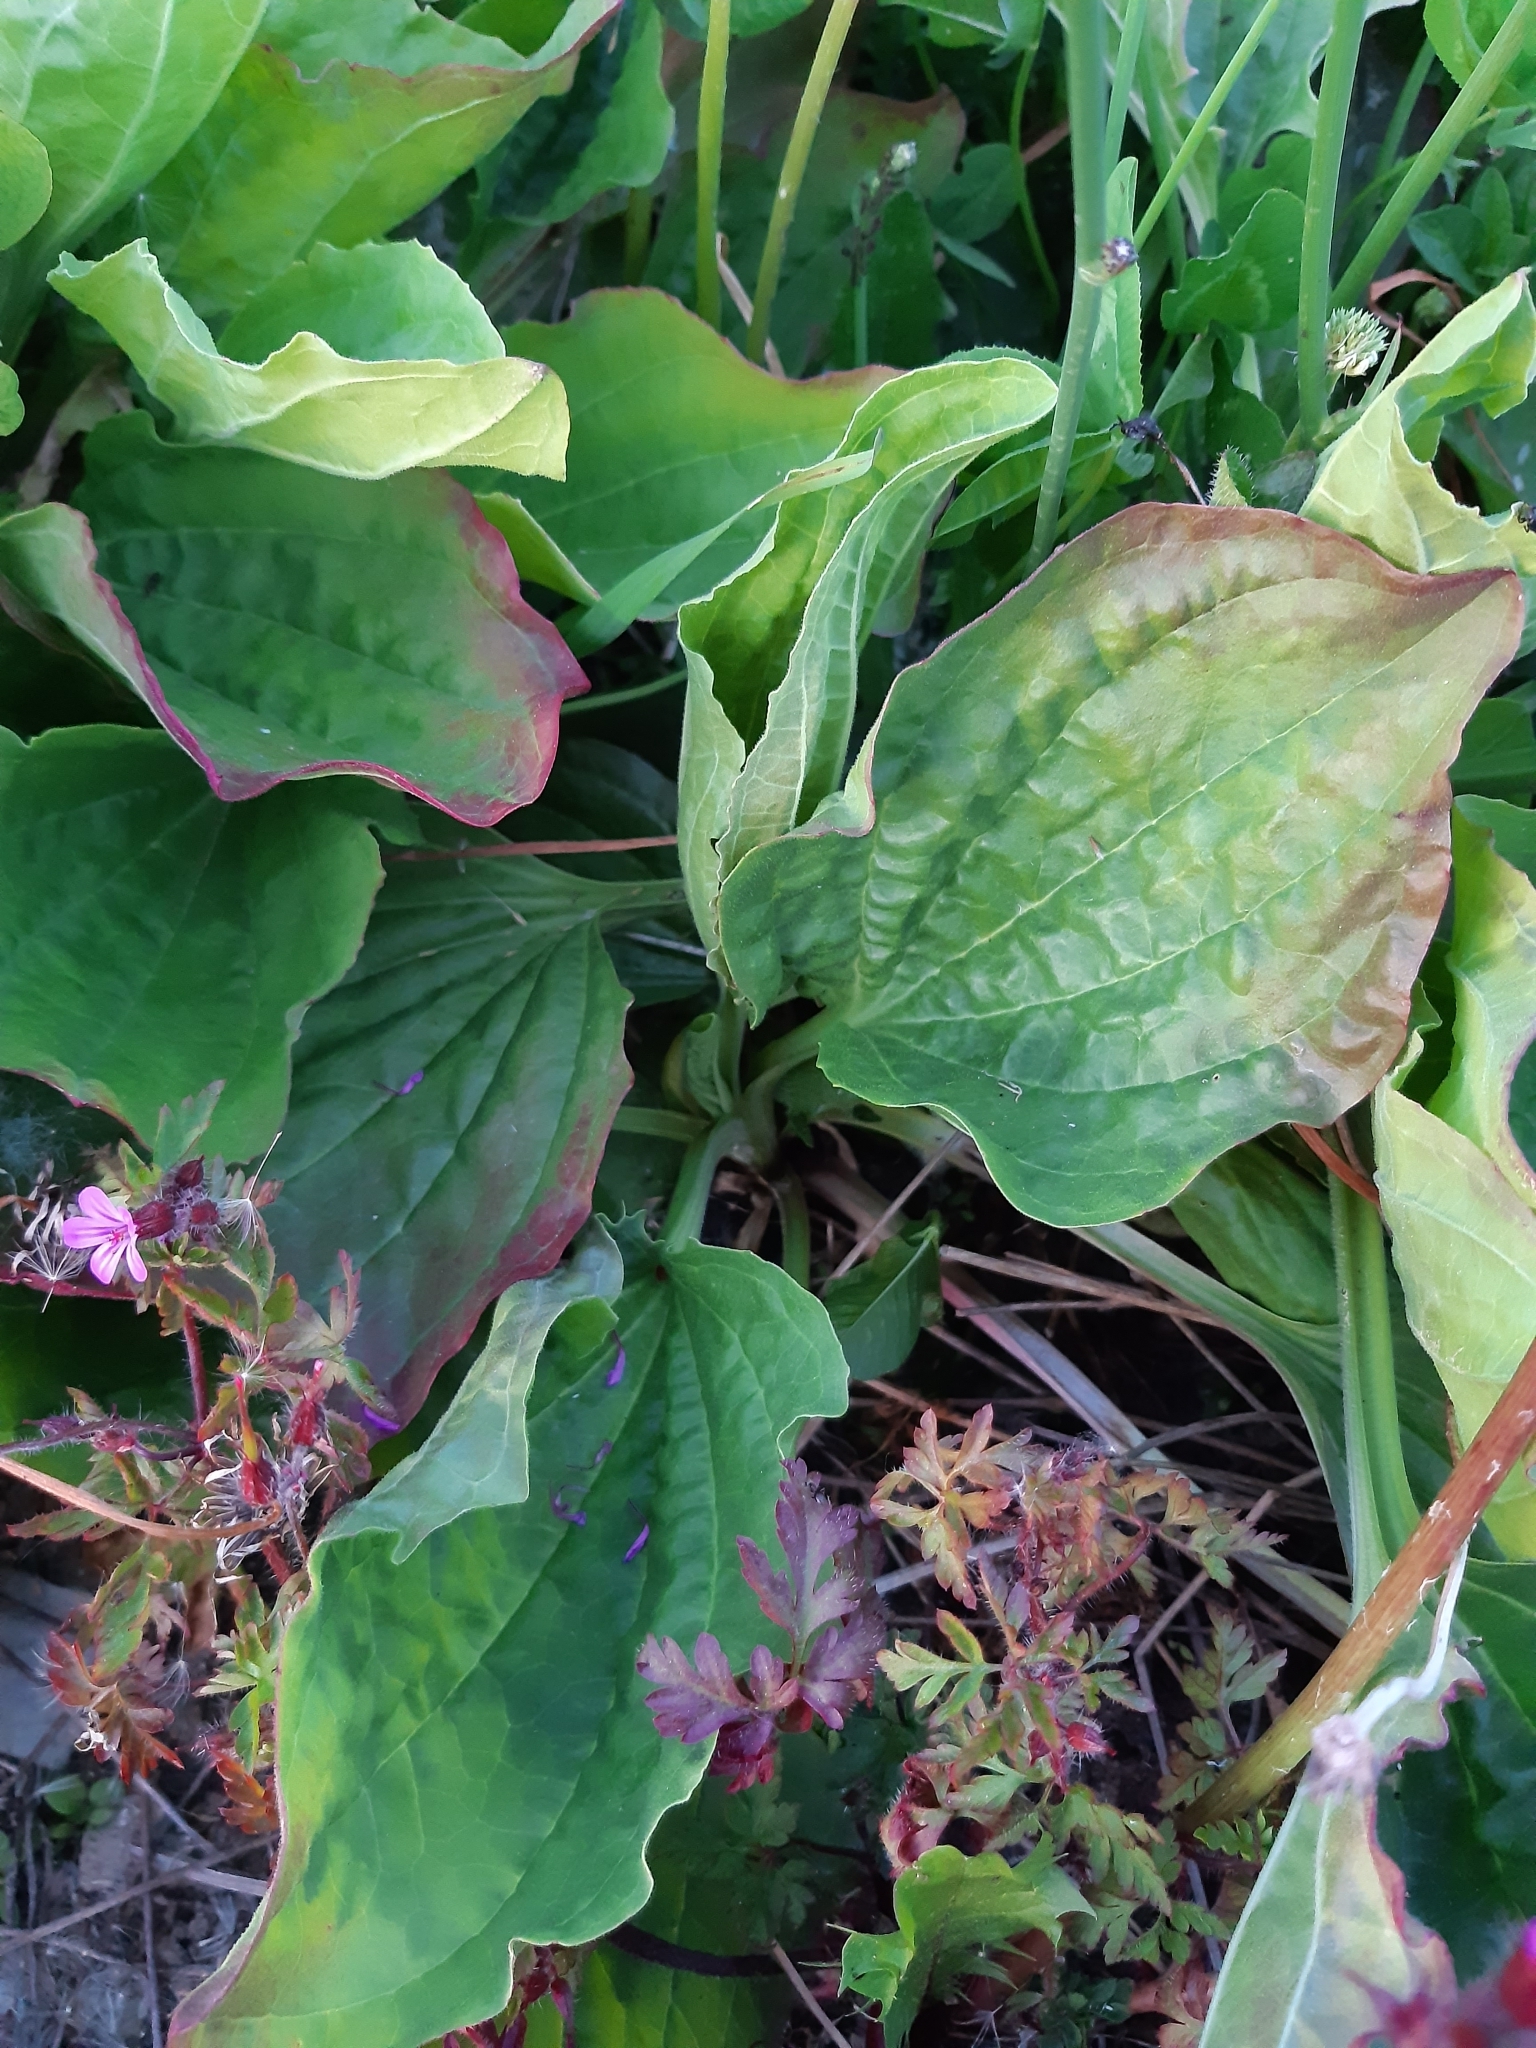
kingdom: Plantae
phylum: Tracheophyta
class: Magnoliopsida
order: Lamiales
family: Plantaginaceae
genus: Plantago
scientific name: Plantago major
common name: Common plantain
